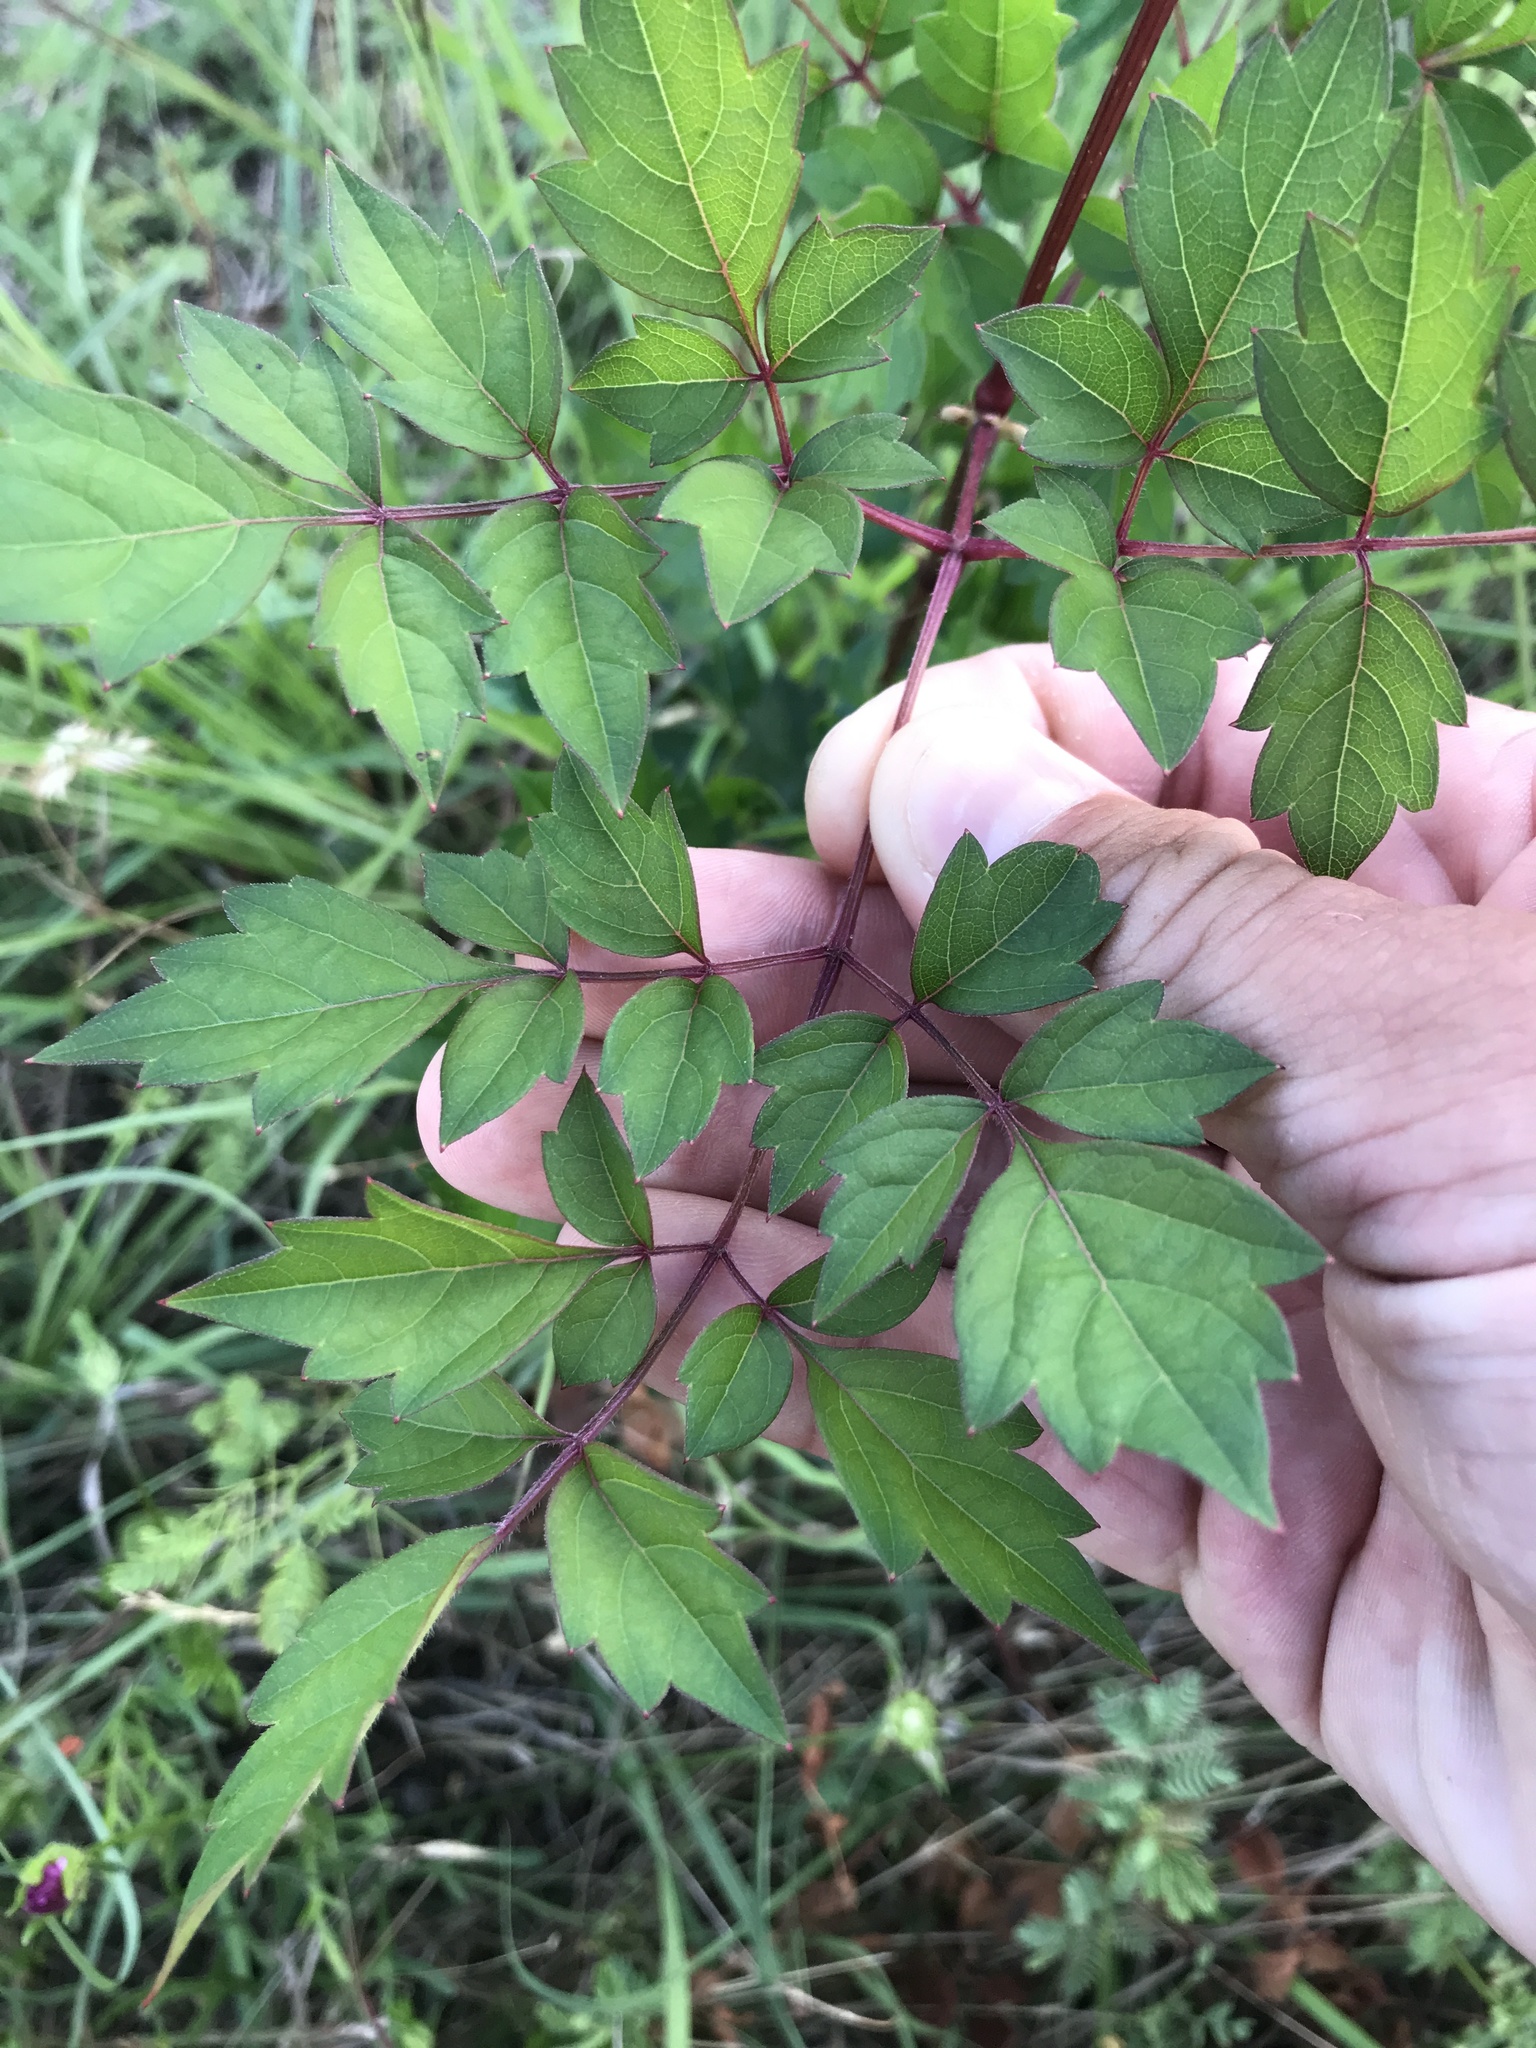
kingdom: Plantae
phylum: Tracheophyta
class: Magnoliopsida
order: Vitales
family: Vitaceae
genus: Nekemias
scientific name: Nekemias arborea
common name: Peppervine
